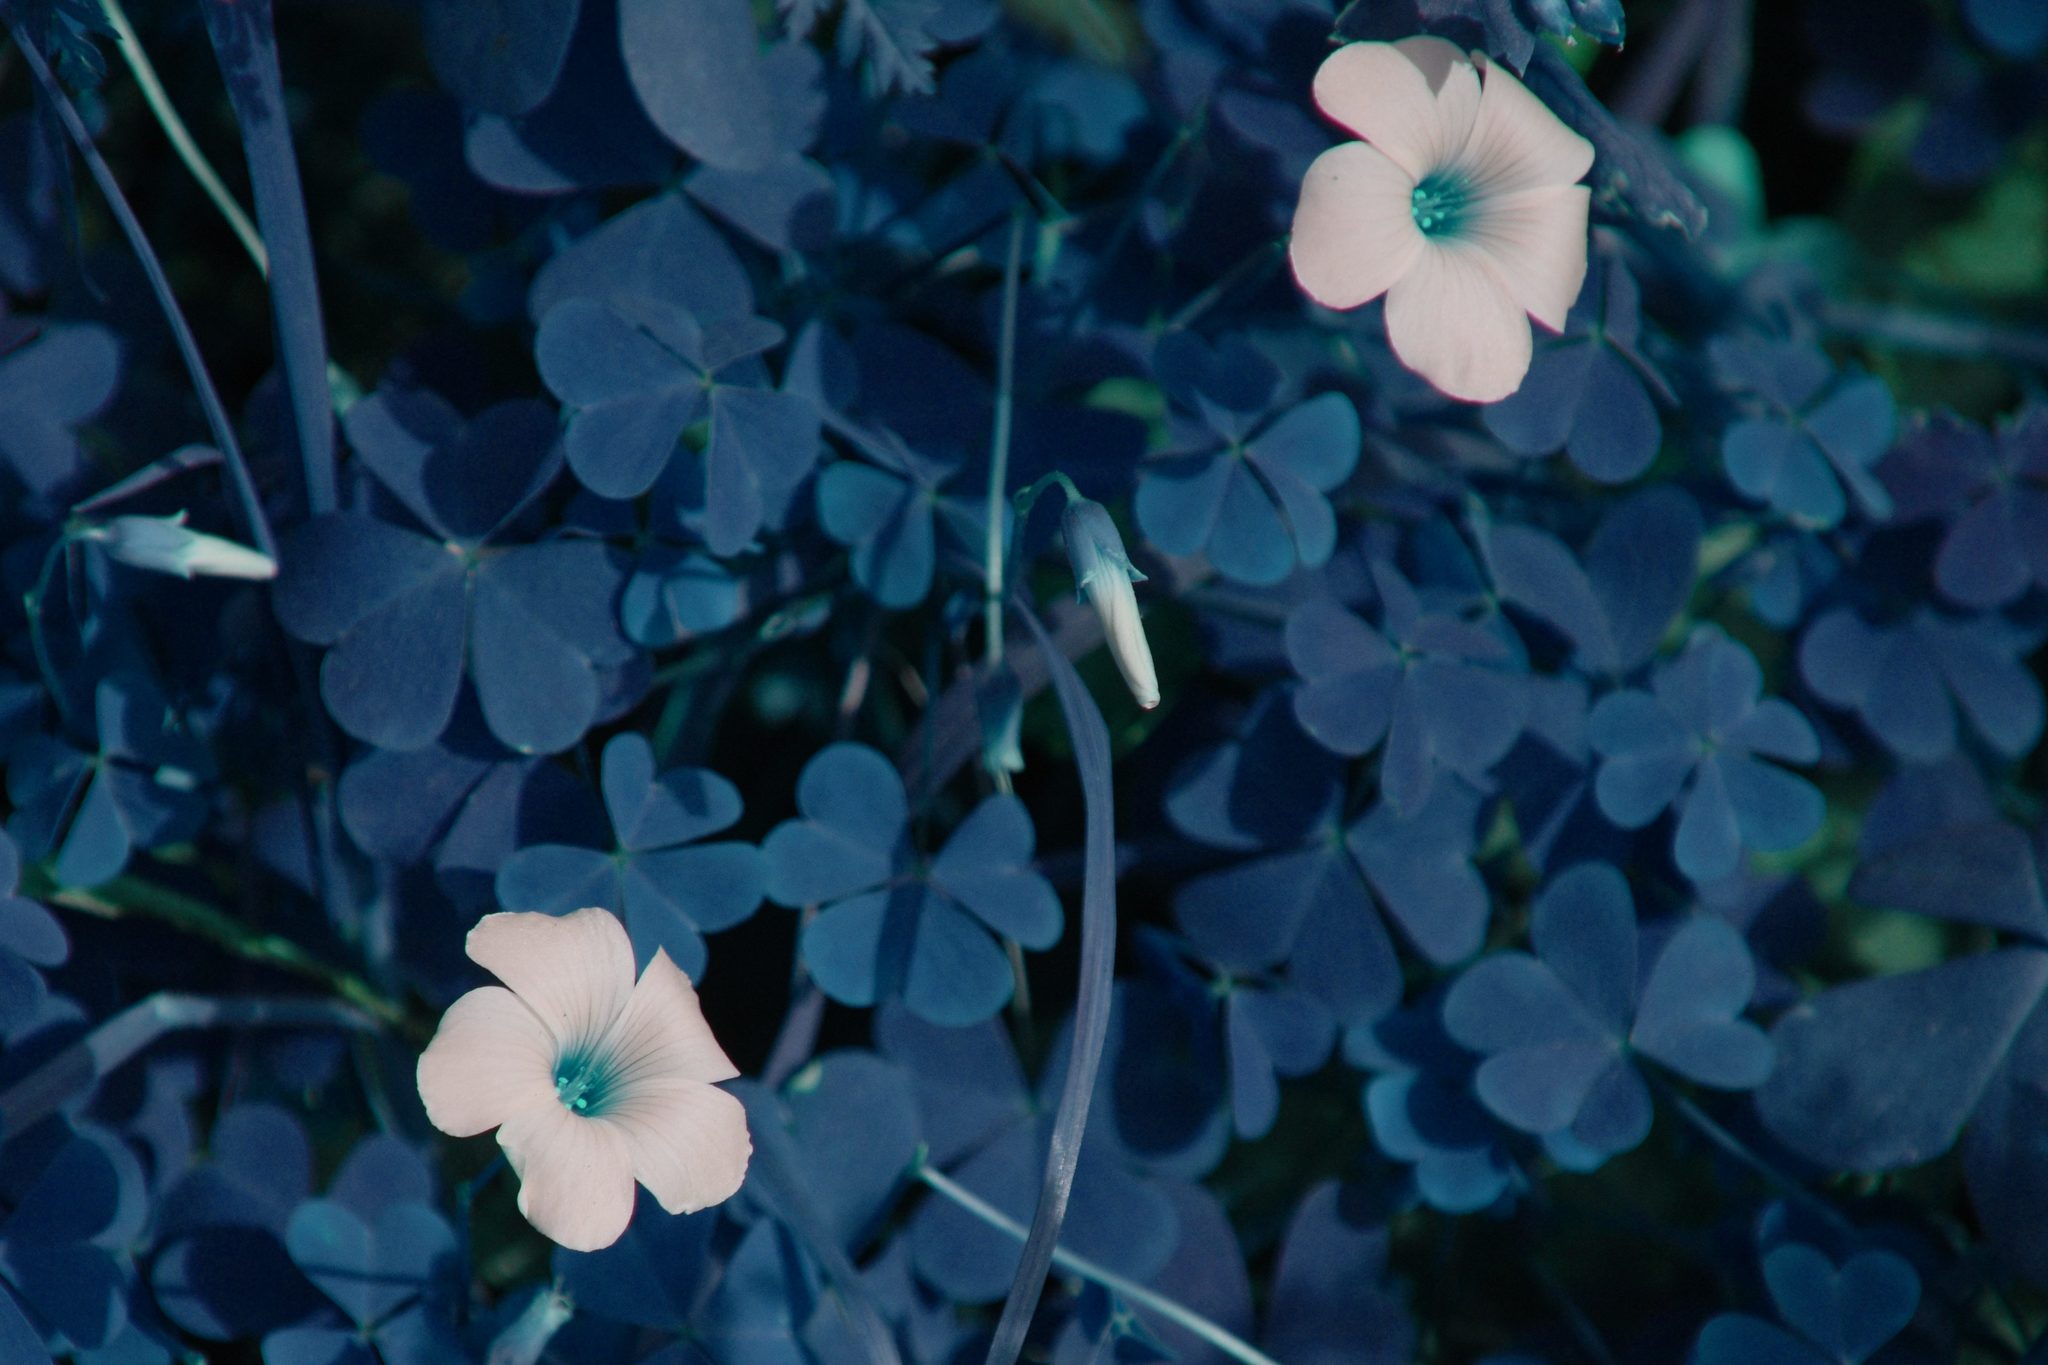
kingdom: Plantae
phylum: Tracheophyta
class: Magnoliopsida
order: Oxalidales
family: Oxalidaceae
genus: Oxalis
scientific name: Oxalis incarnata
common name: Pale pink-sorrel
